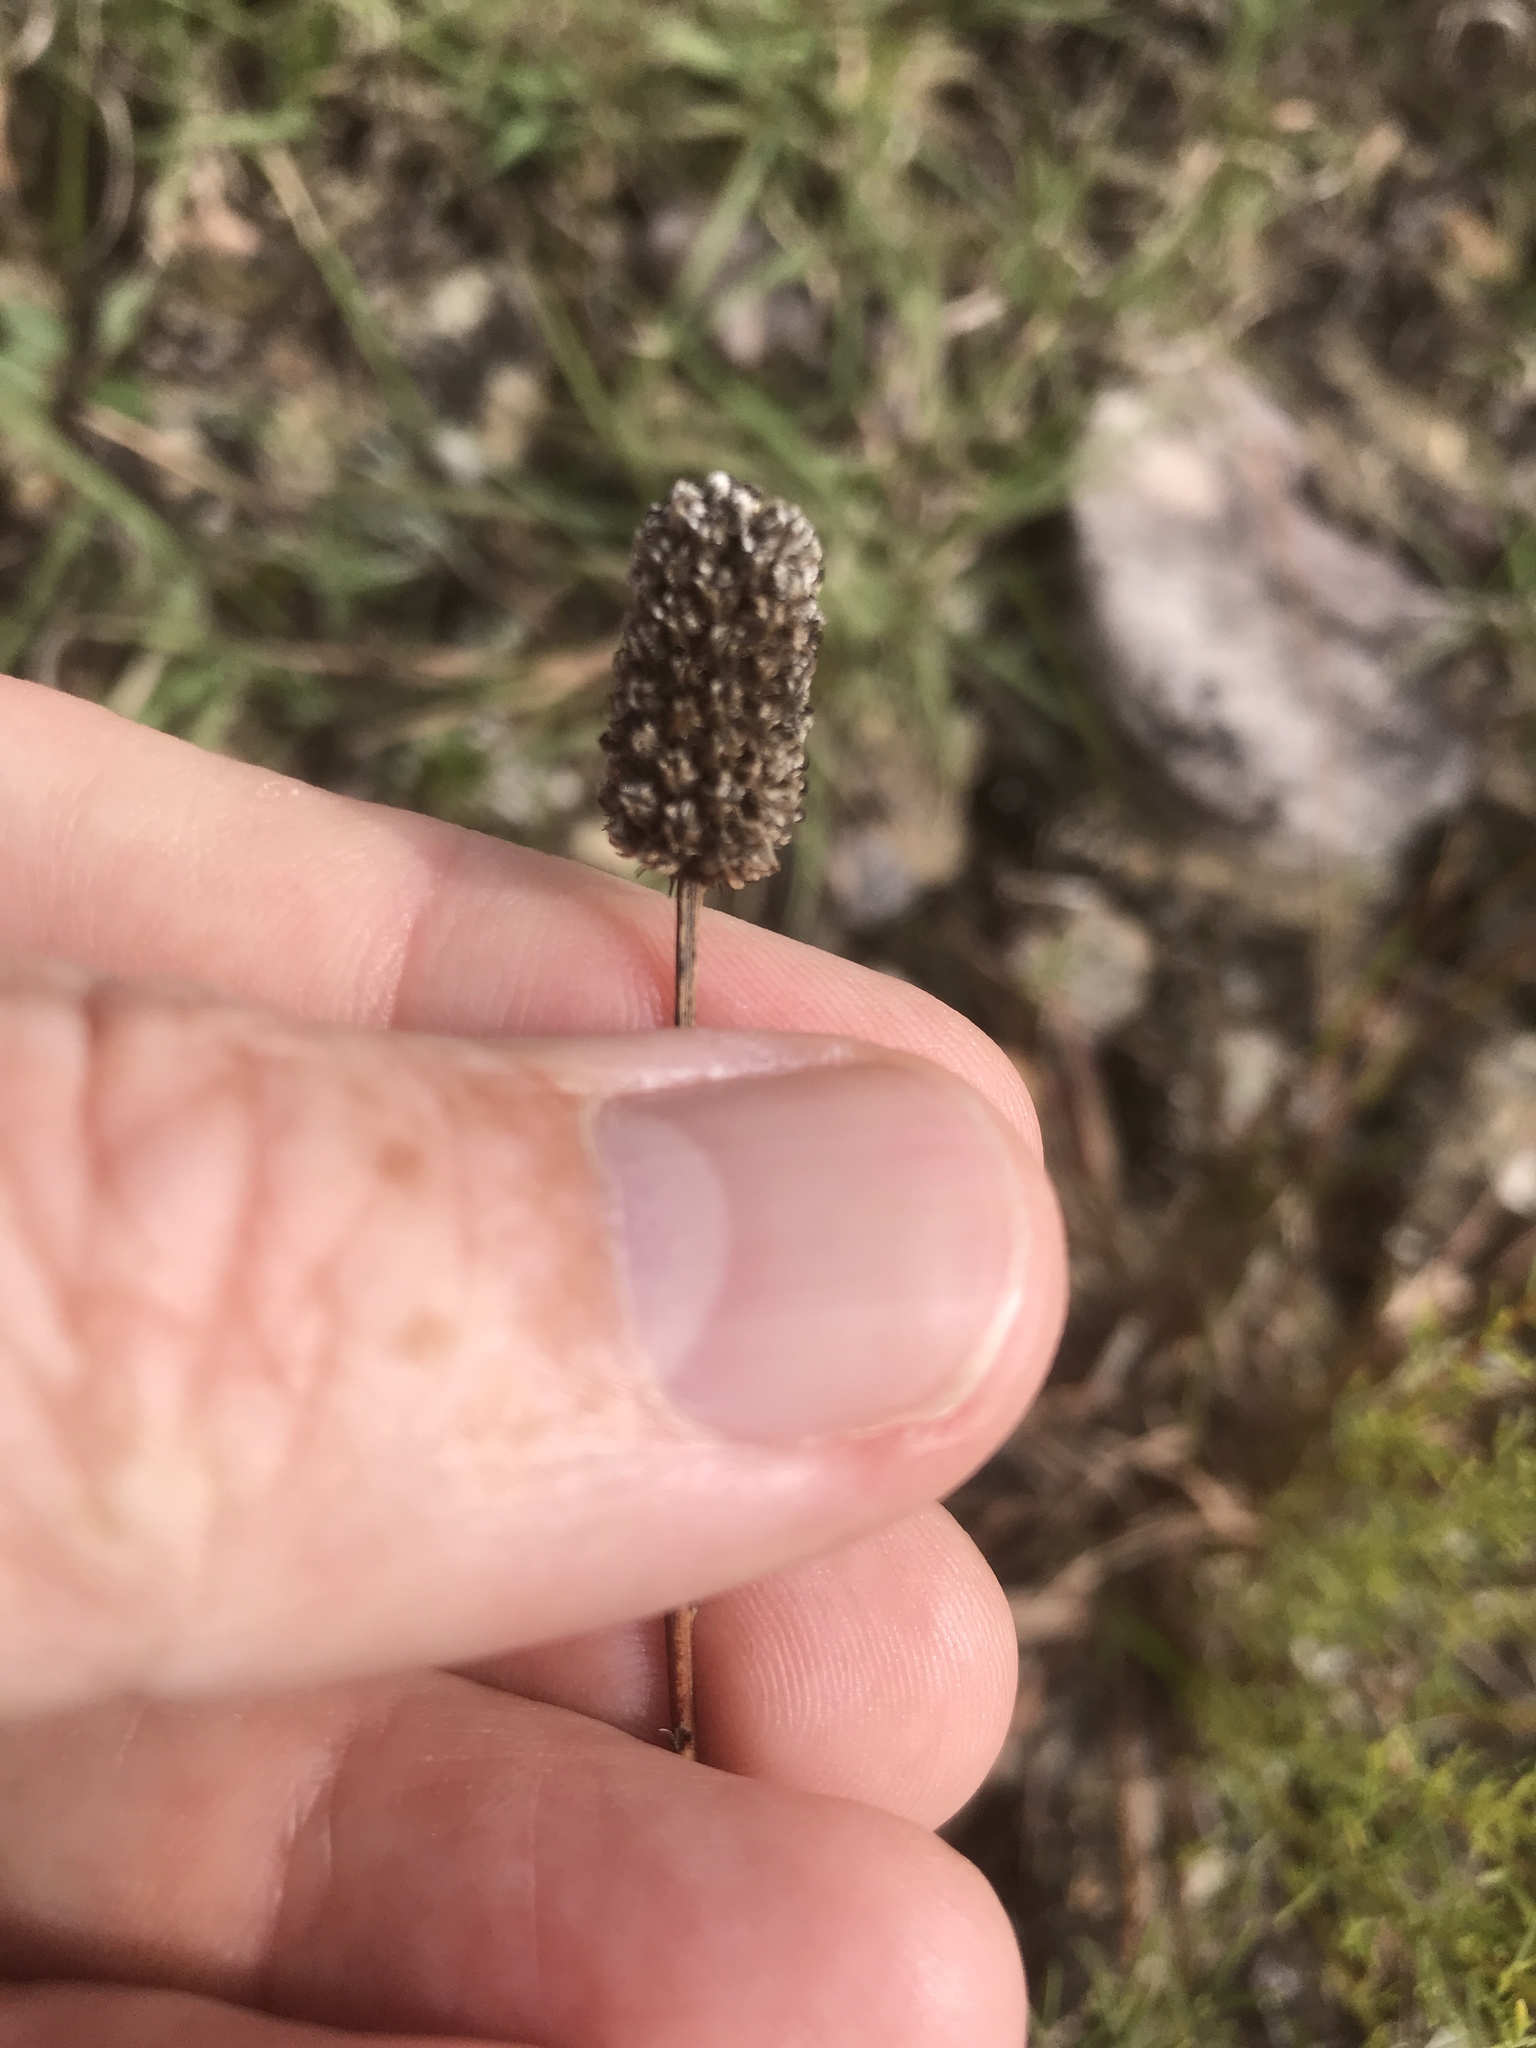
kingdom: Plantae
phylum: Tracheophyta
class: Magnoliopsida
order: Fabales
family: Fabaceae
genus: Dalea
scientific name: Dalea purpurea
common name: Purple prairie-clover
